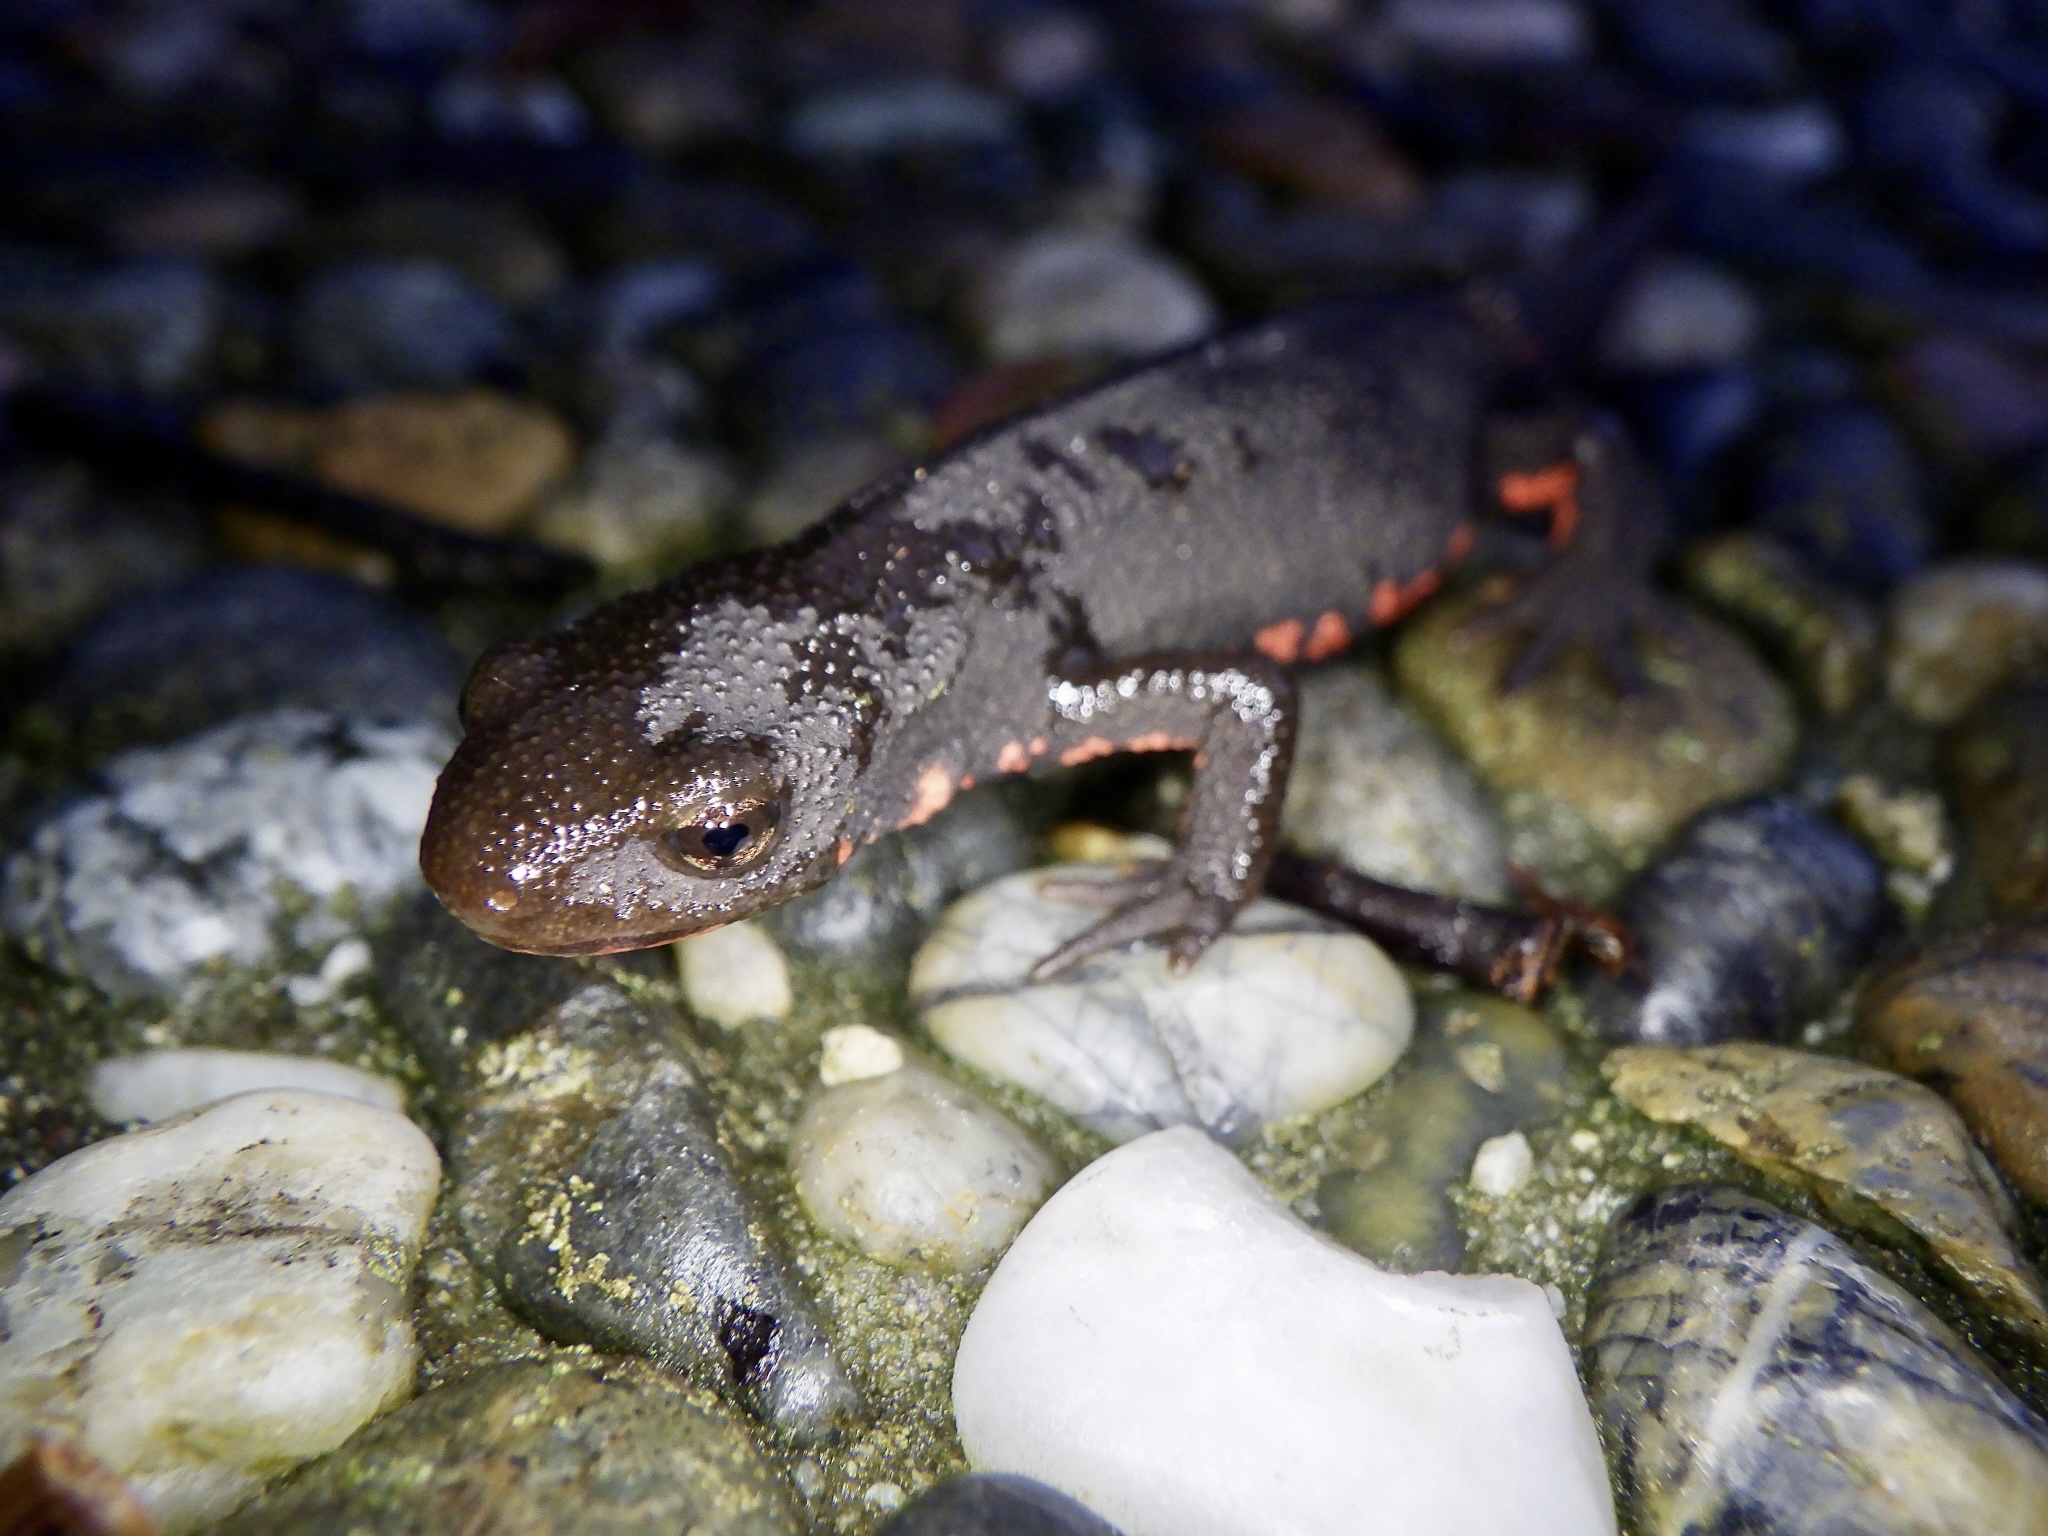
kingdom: Animalia
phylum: Chordata
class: Amphibia
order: Caudata
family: Salamandridae
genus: Cynops
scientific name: Cynops pyrrhogaster
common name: Japanese fire-bellied newt
